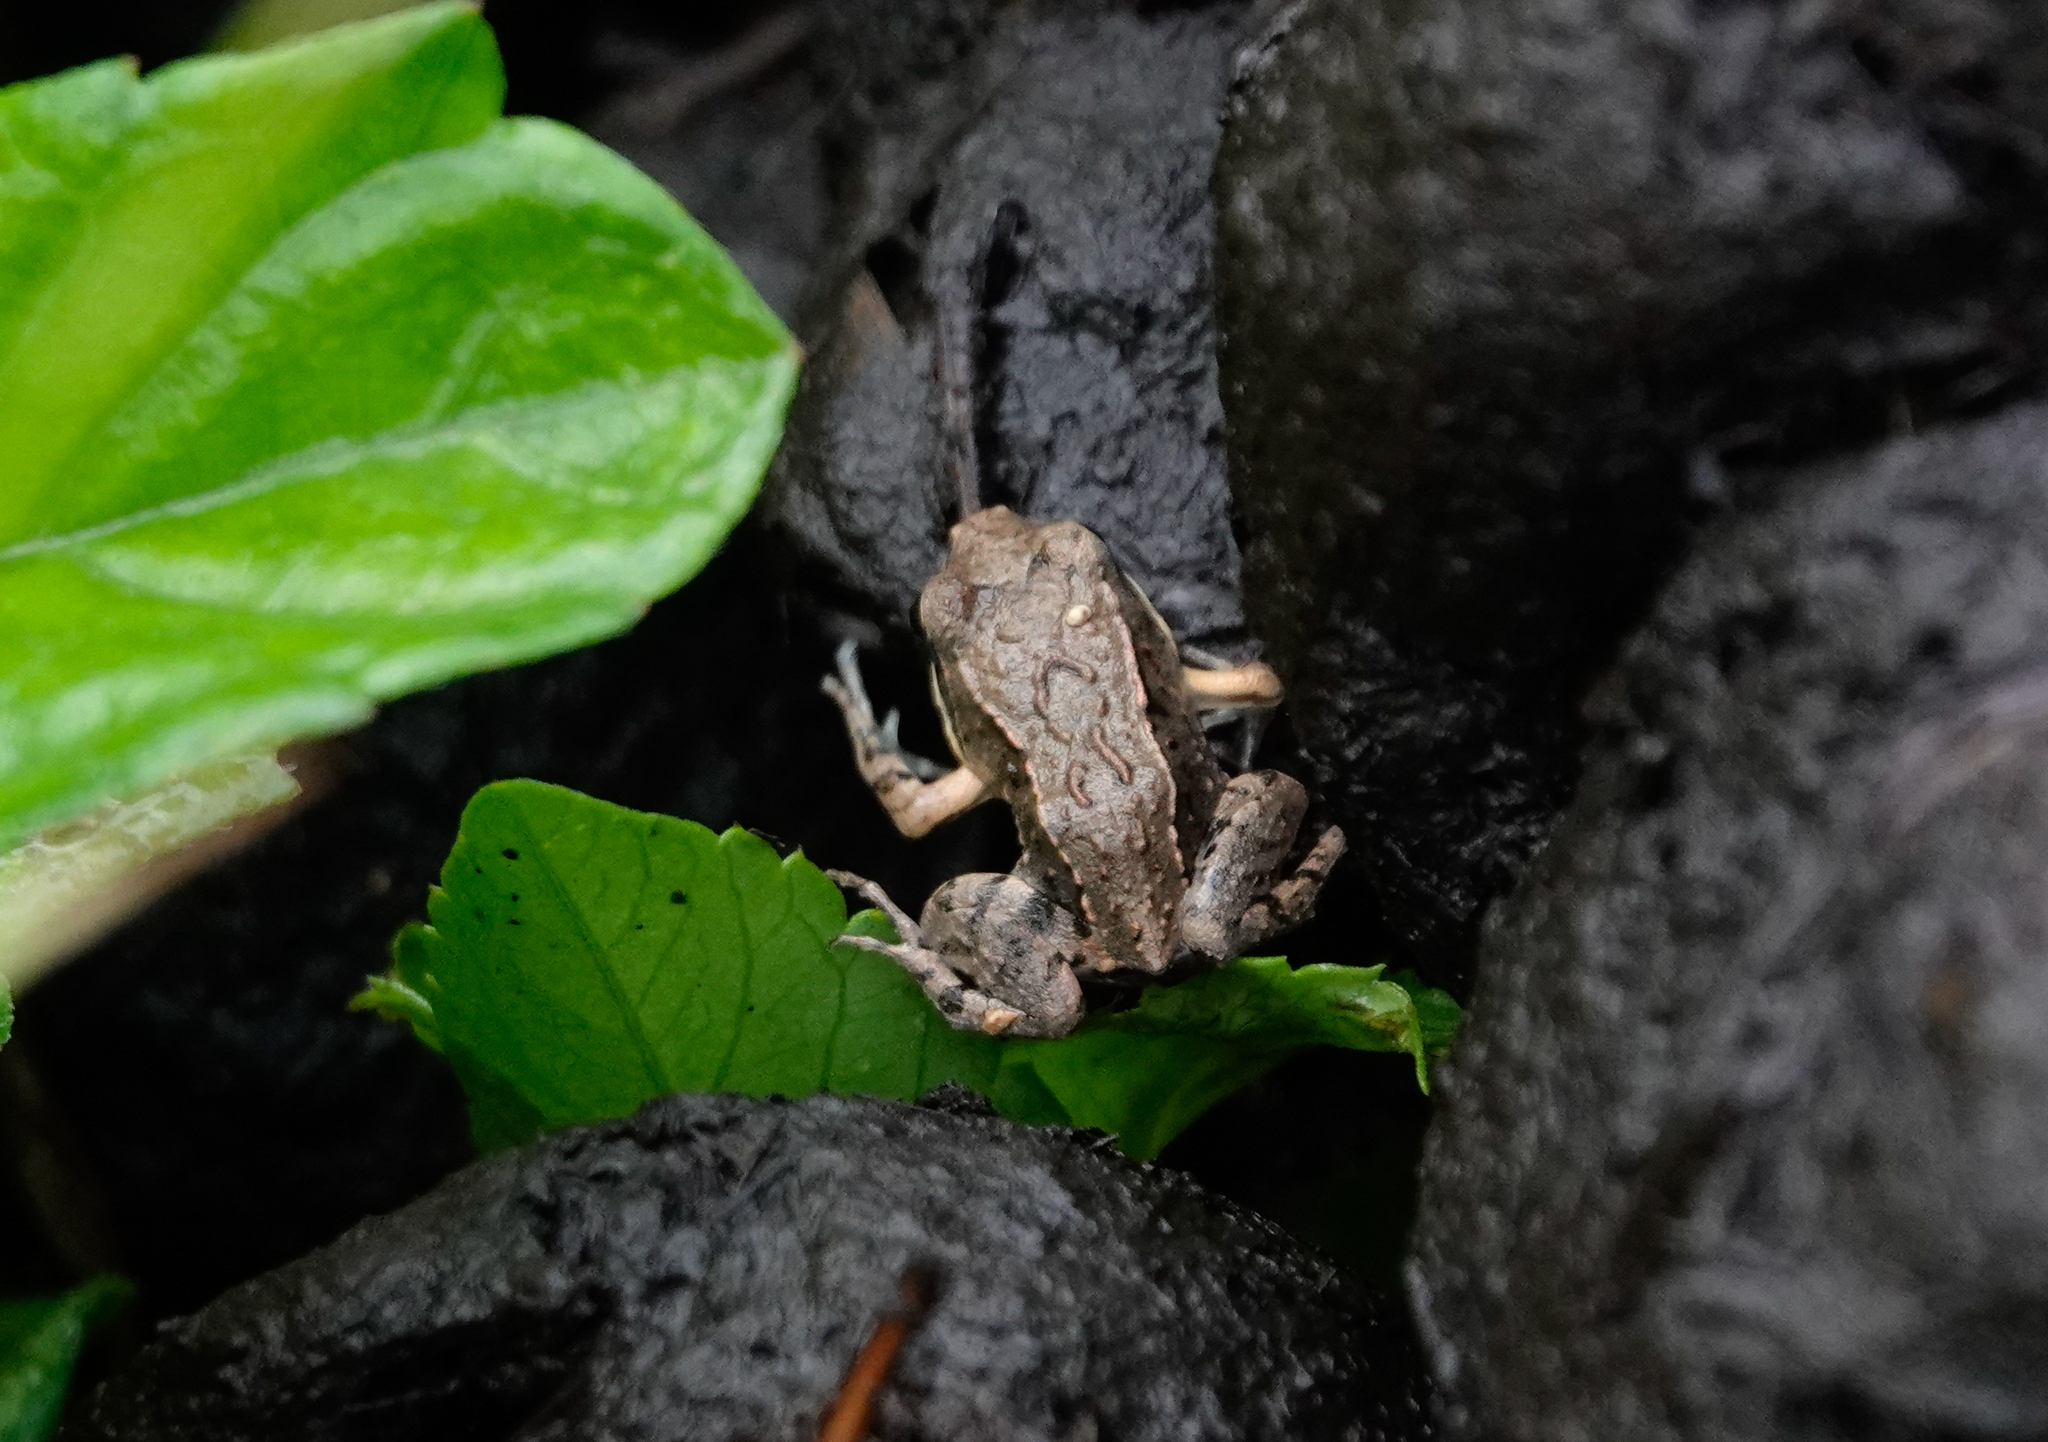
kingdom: Animalia
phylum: Chordata
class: Amphibia
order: Anura
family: Leptodactylidae
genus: Leptodactylus
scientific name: Leptodactylus albilabris
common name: Caribbean white-lipped frog
